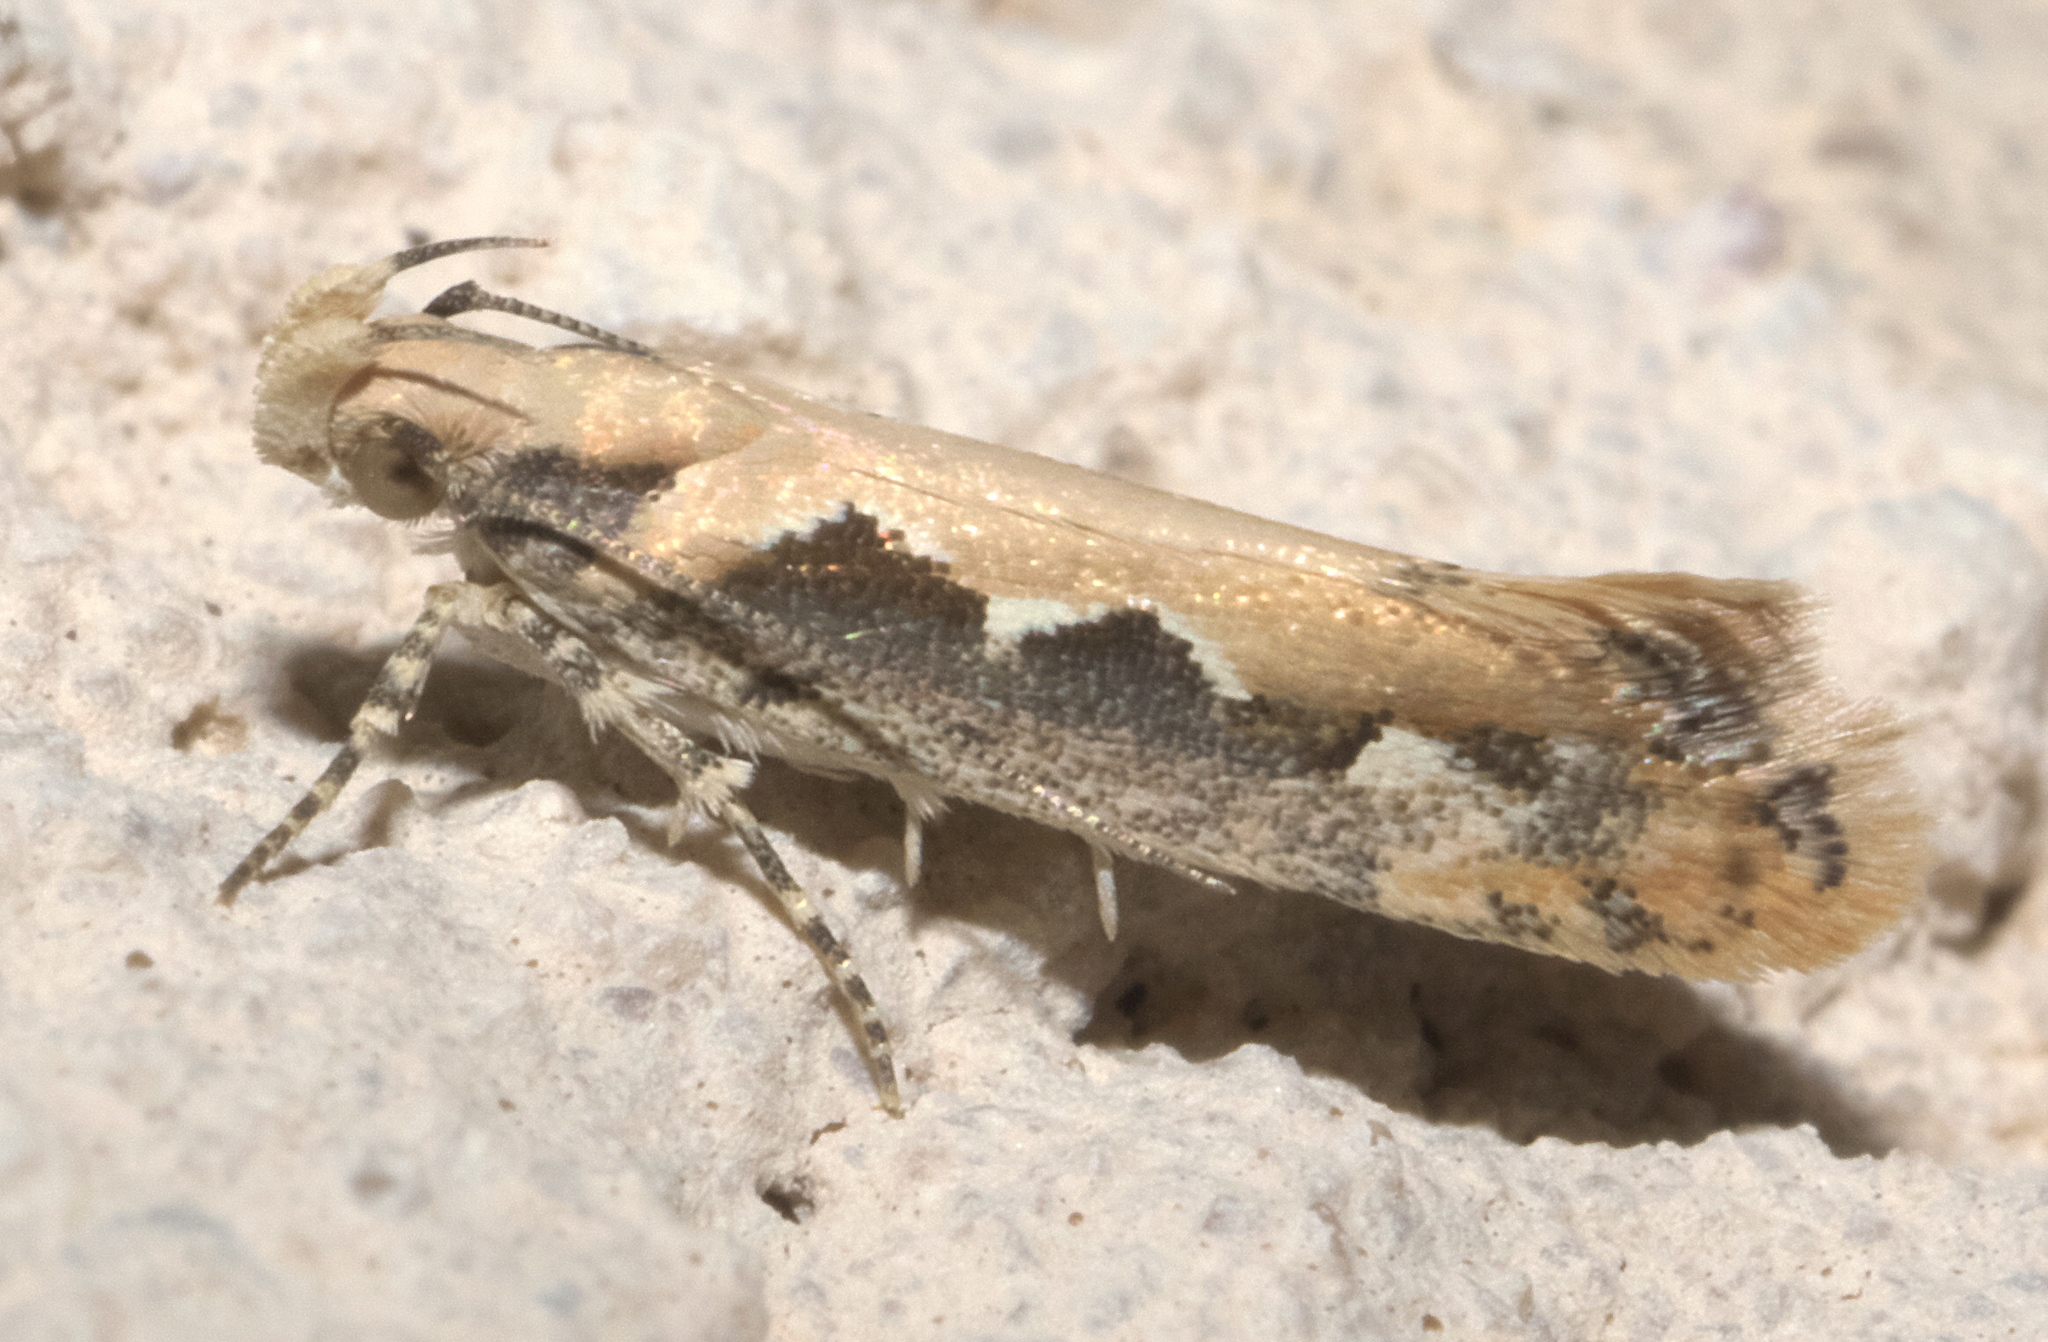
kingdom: Animalia
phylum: Arthropoda
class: Insecta
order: Lepidoptera
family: Gelechiidae
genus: Ornativalva
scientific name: Ornativalva erubescens
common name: Moth
